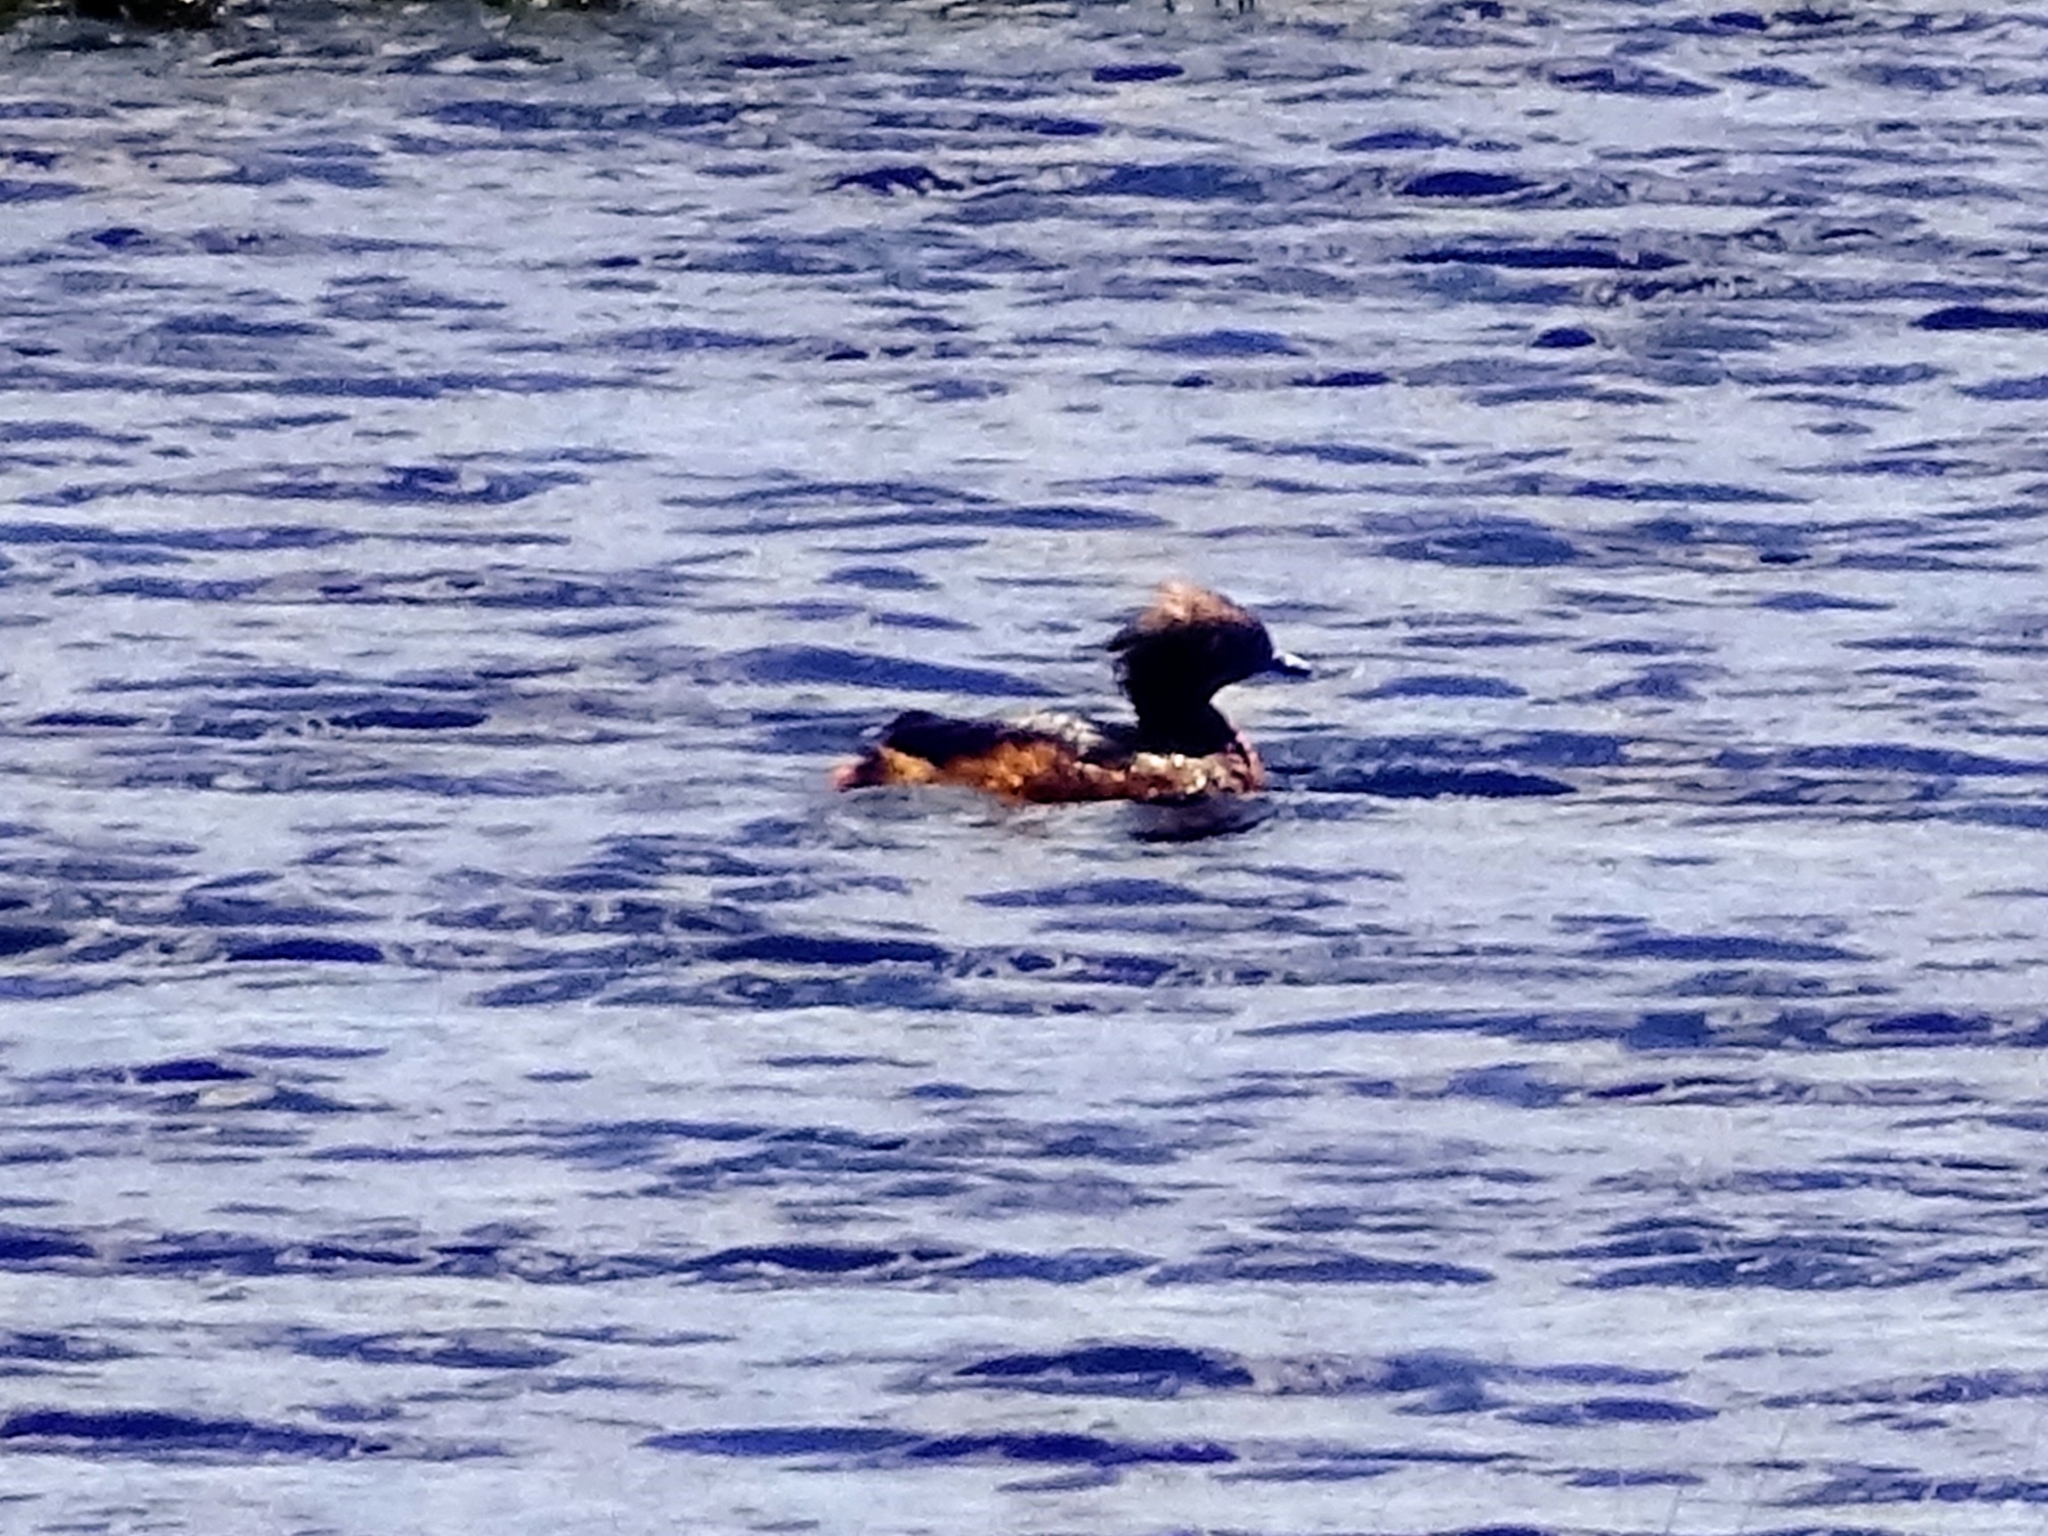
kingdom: Animalia
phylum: Chordata
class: Aves
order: Podicipediformes
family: Podicipedidae
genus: Podiceps
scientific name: Podiceps auritus
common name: Horned grebe
